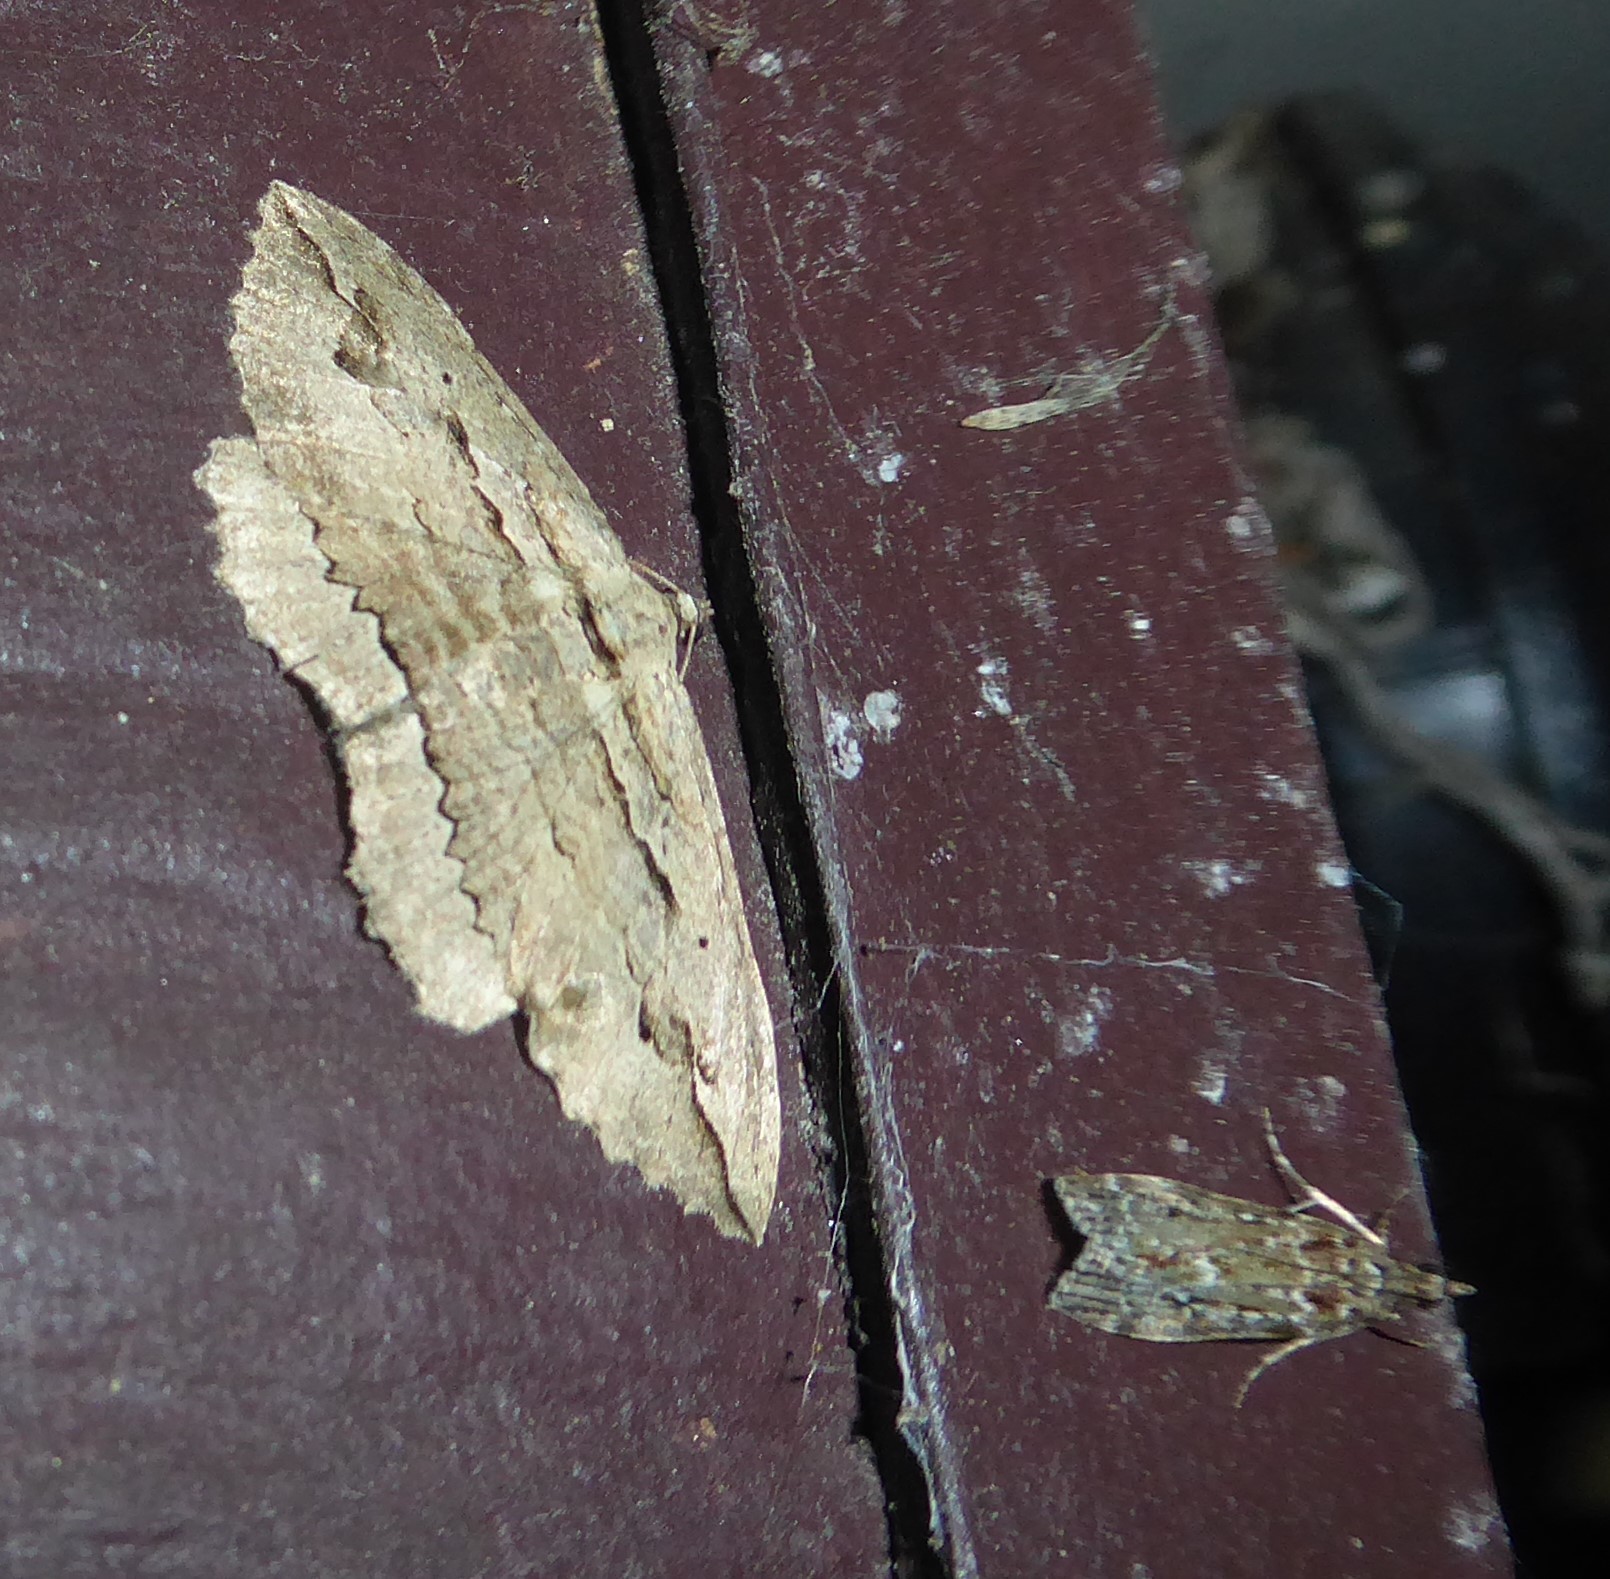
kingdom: Animalia
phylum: Arthropoda
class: Insecta
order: Lepidoptera
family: Geometridae
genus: Austrocidaria
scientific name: Austrocidaria gobiata
